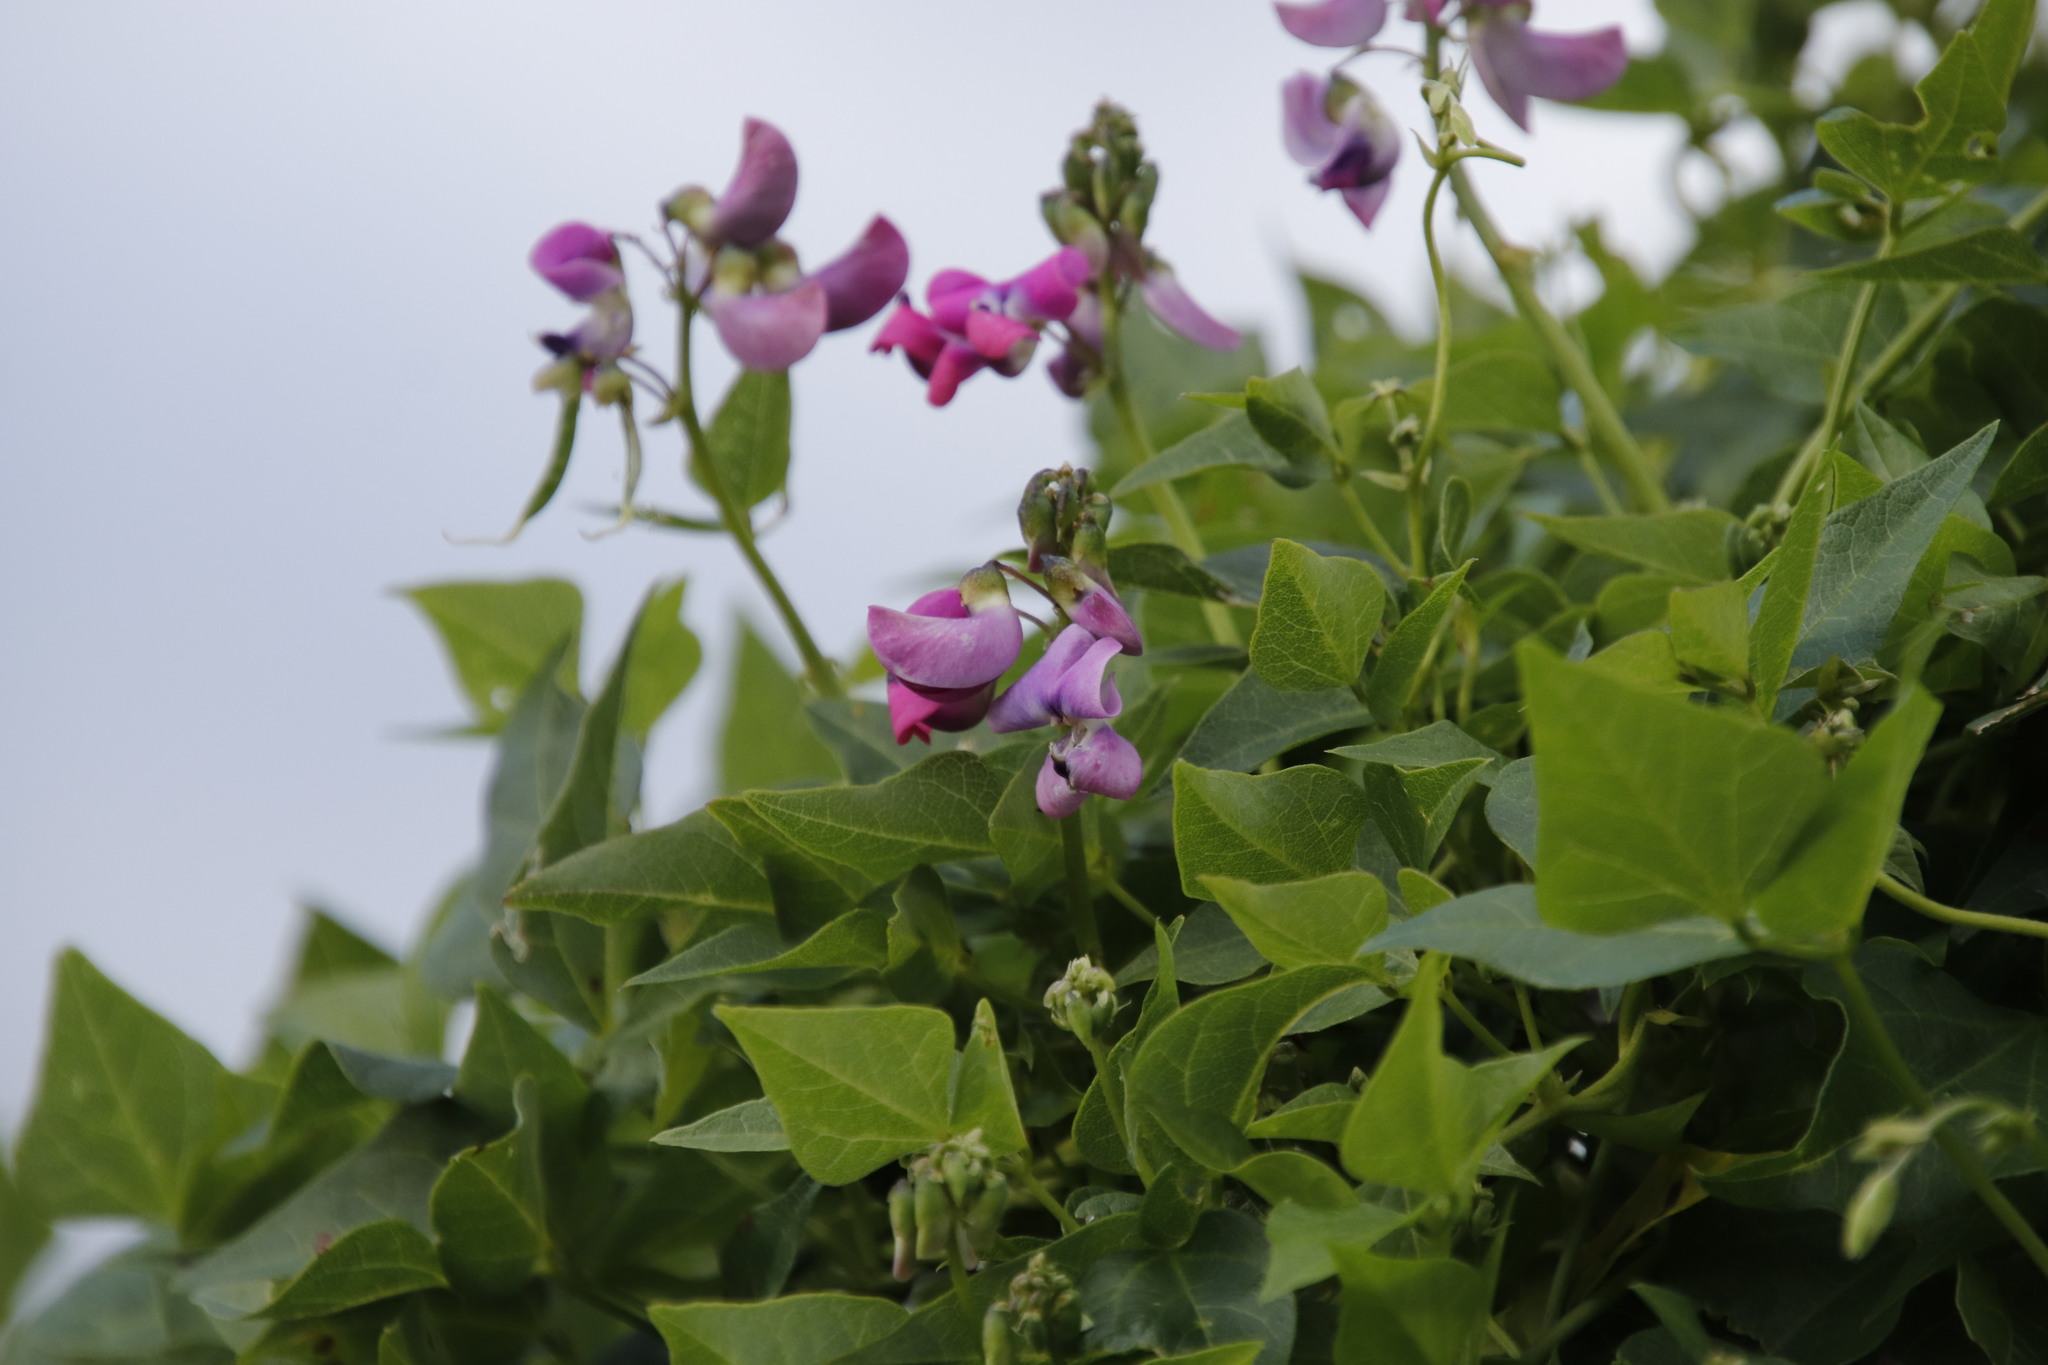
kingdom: Plantae
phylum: Tracheophyta
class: Magnoliopsida
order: Fabales
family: Fabaceae
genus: Dipogon
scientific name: Dipogon lignosus
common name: Okie bean
